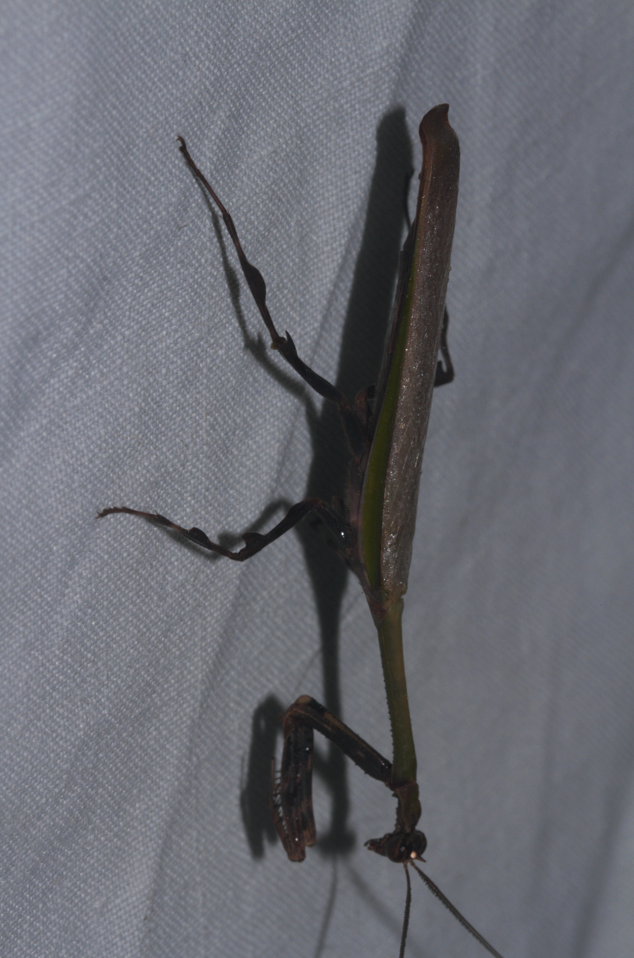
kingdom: Animalia
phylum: Arthropoda
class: Insecta
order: Mantodea
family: Mantidae
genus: Vates
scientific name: Vates lobata
